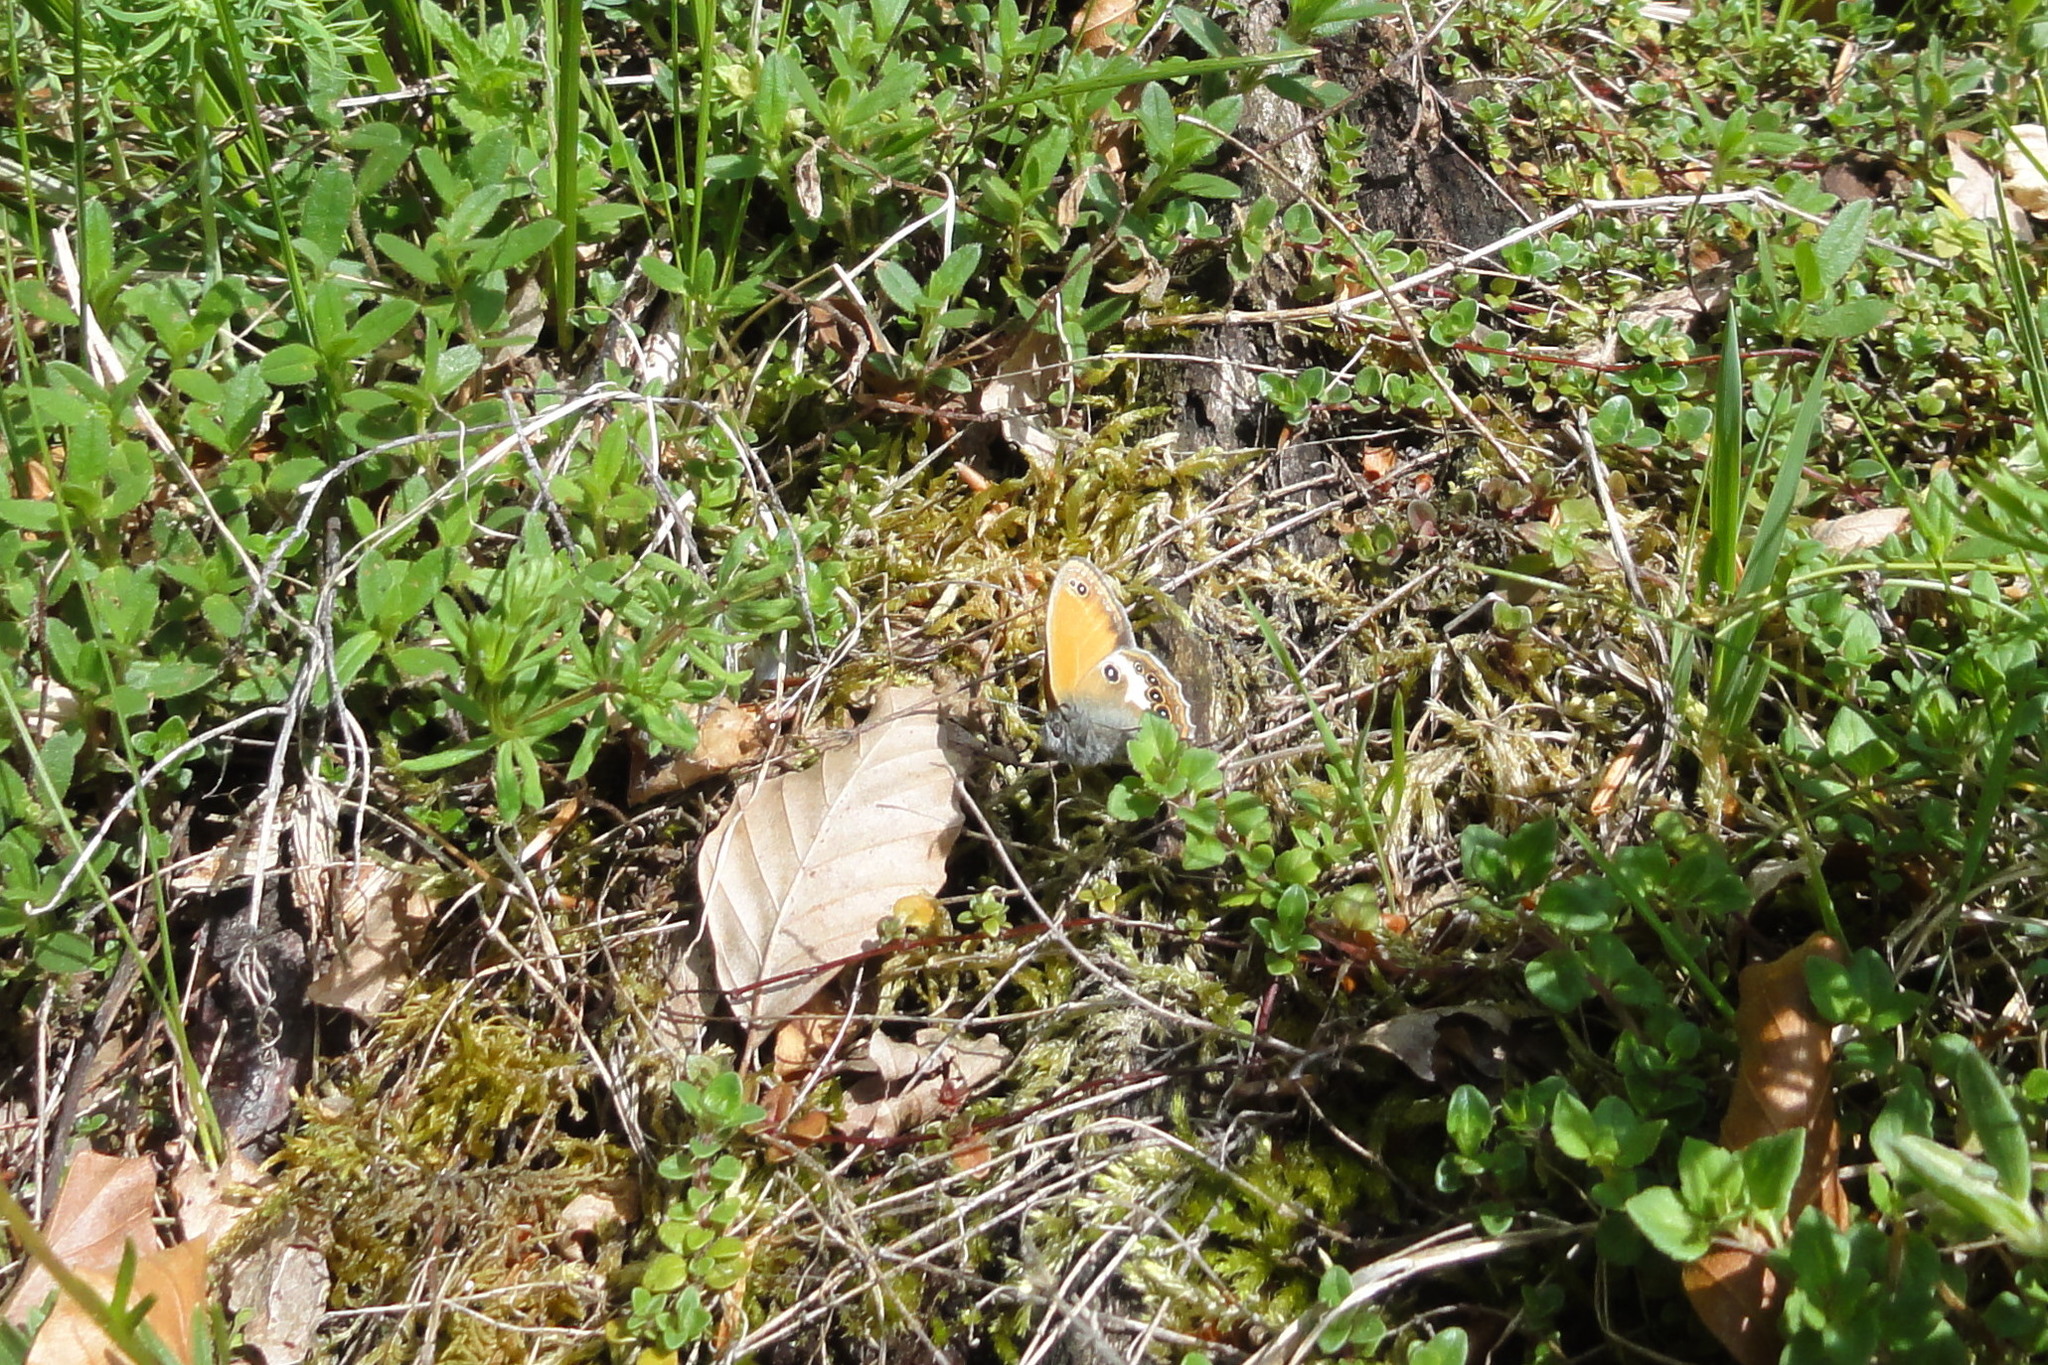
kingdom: Animalia
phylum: Arthropoda
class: Insecta
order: Lepidoptera
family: Nymphalidae
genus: Coenonympha
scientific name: Coenonympha arcania
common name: Pearly heath
